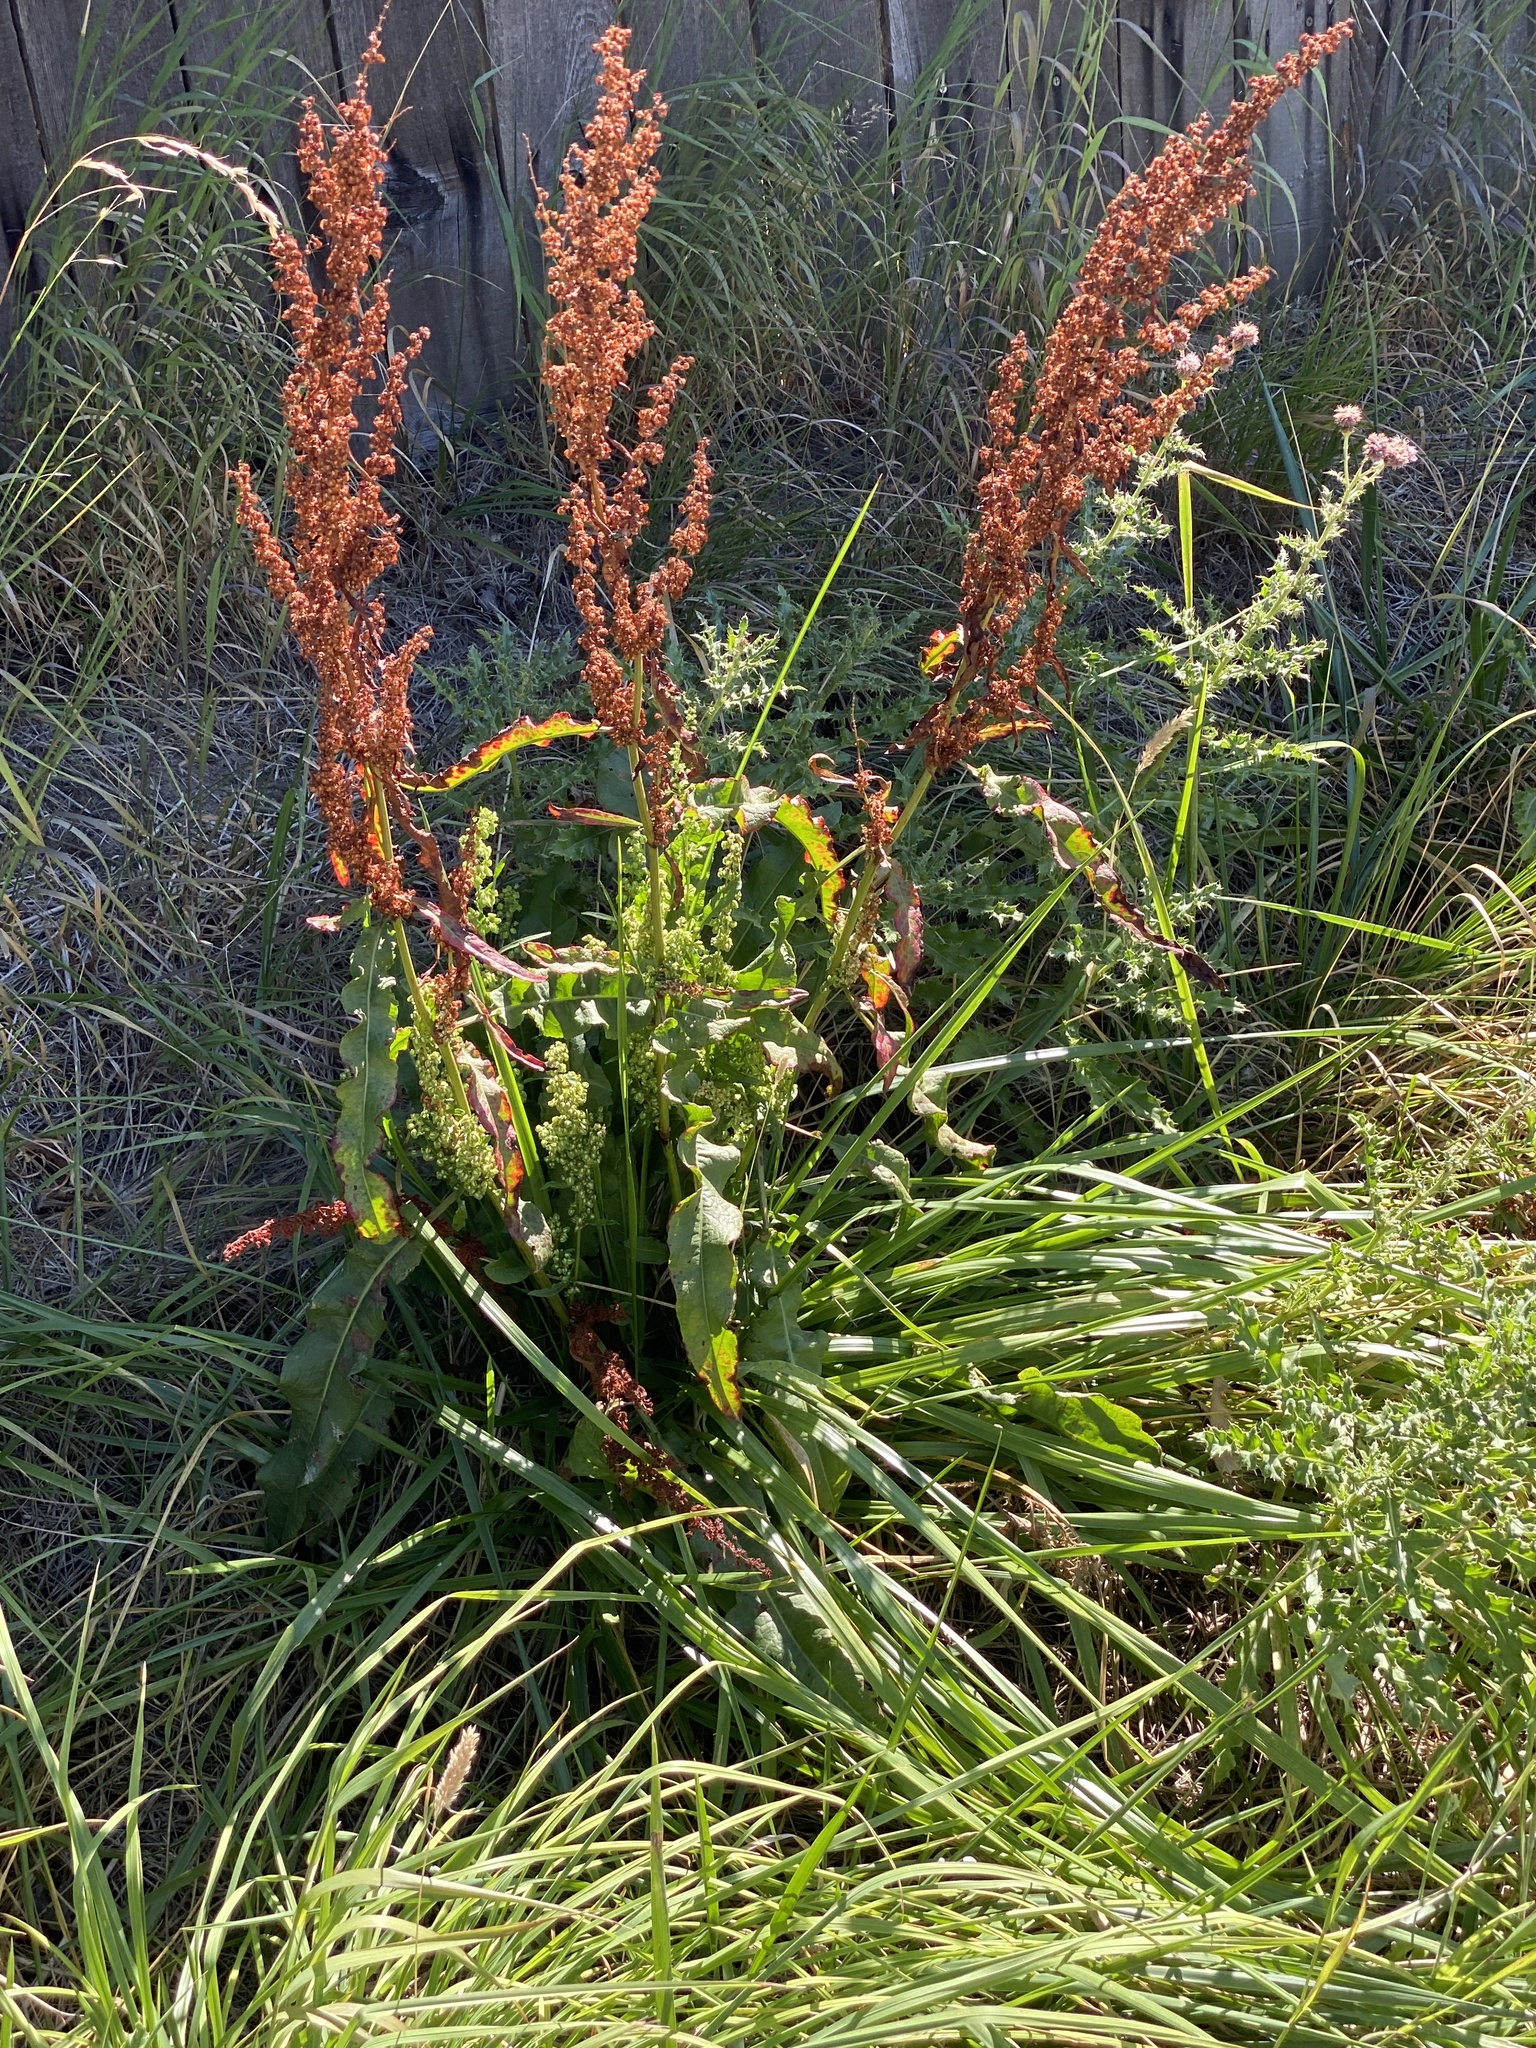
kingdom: Plantae
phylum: Tracheophyta
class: Magnoliopsida
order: Caryophyllales
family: Polygonaceae
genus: Rumex
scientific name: Rumex crispus
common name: Curled dock
